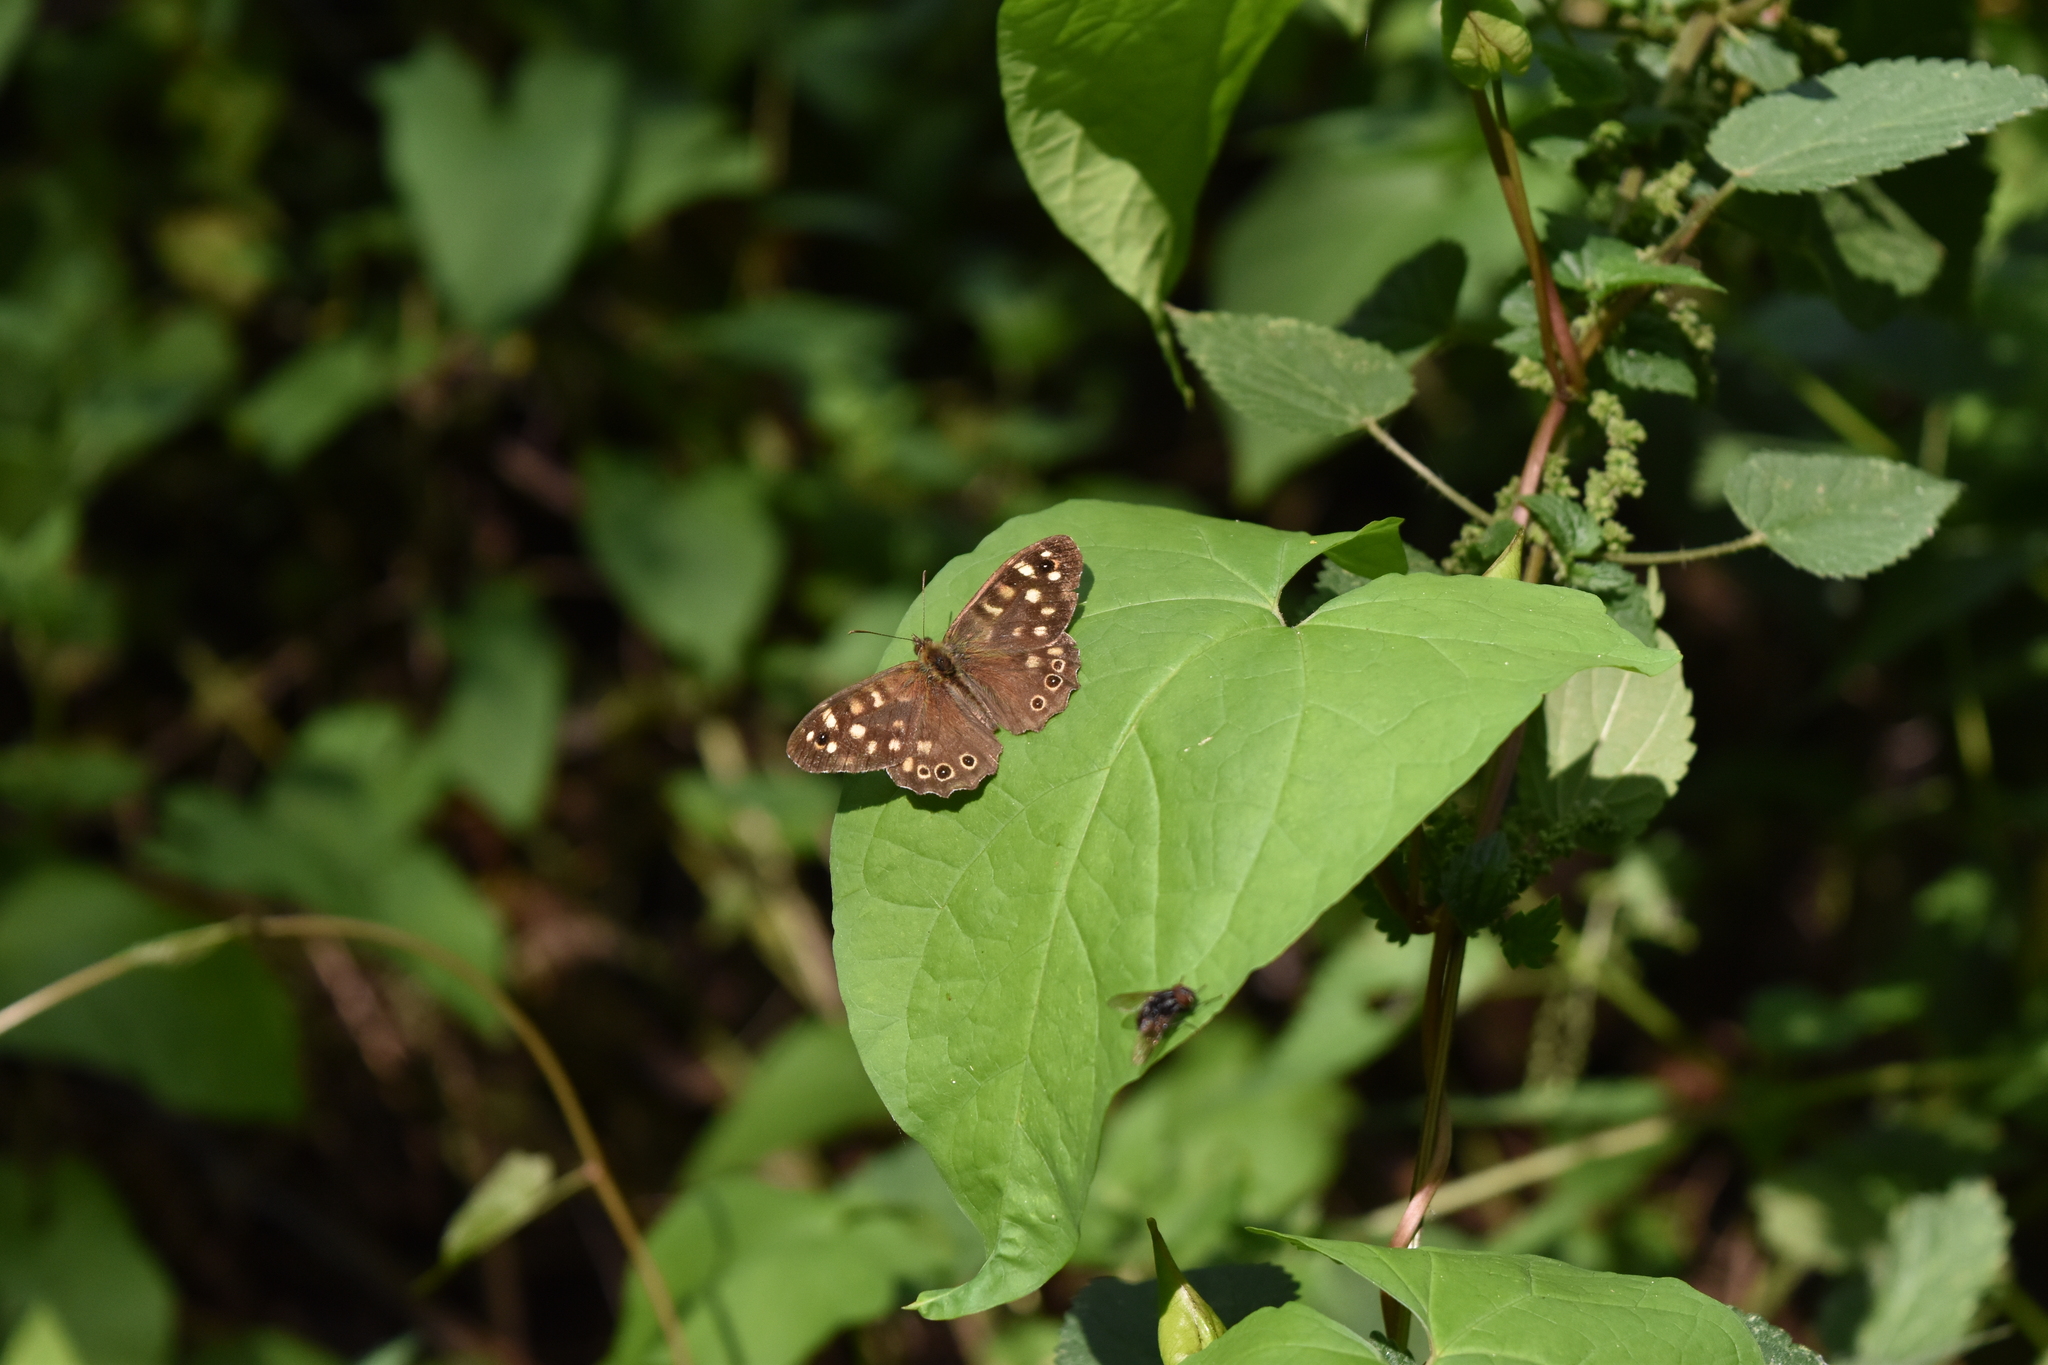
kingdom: Animalia
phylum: Arthropoda
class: Insecta
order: Lepidoptera
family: Nymphalidae
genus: Pararge
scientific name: Pararge aegeria
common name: Speckled wood
